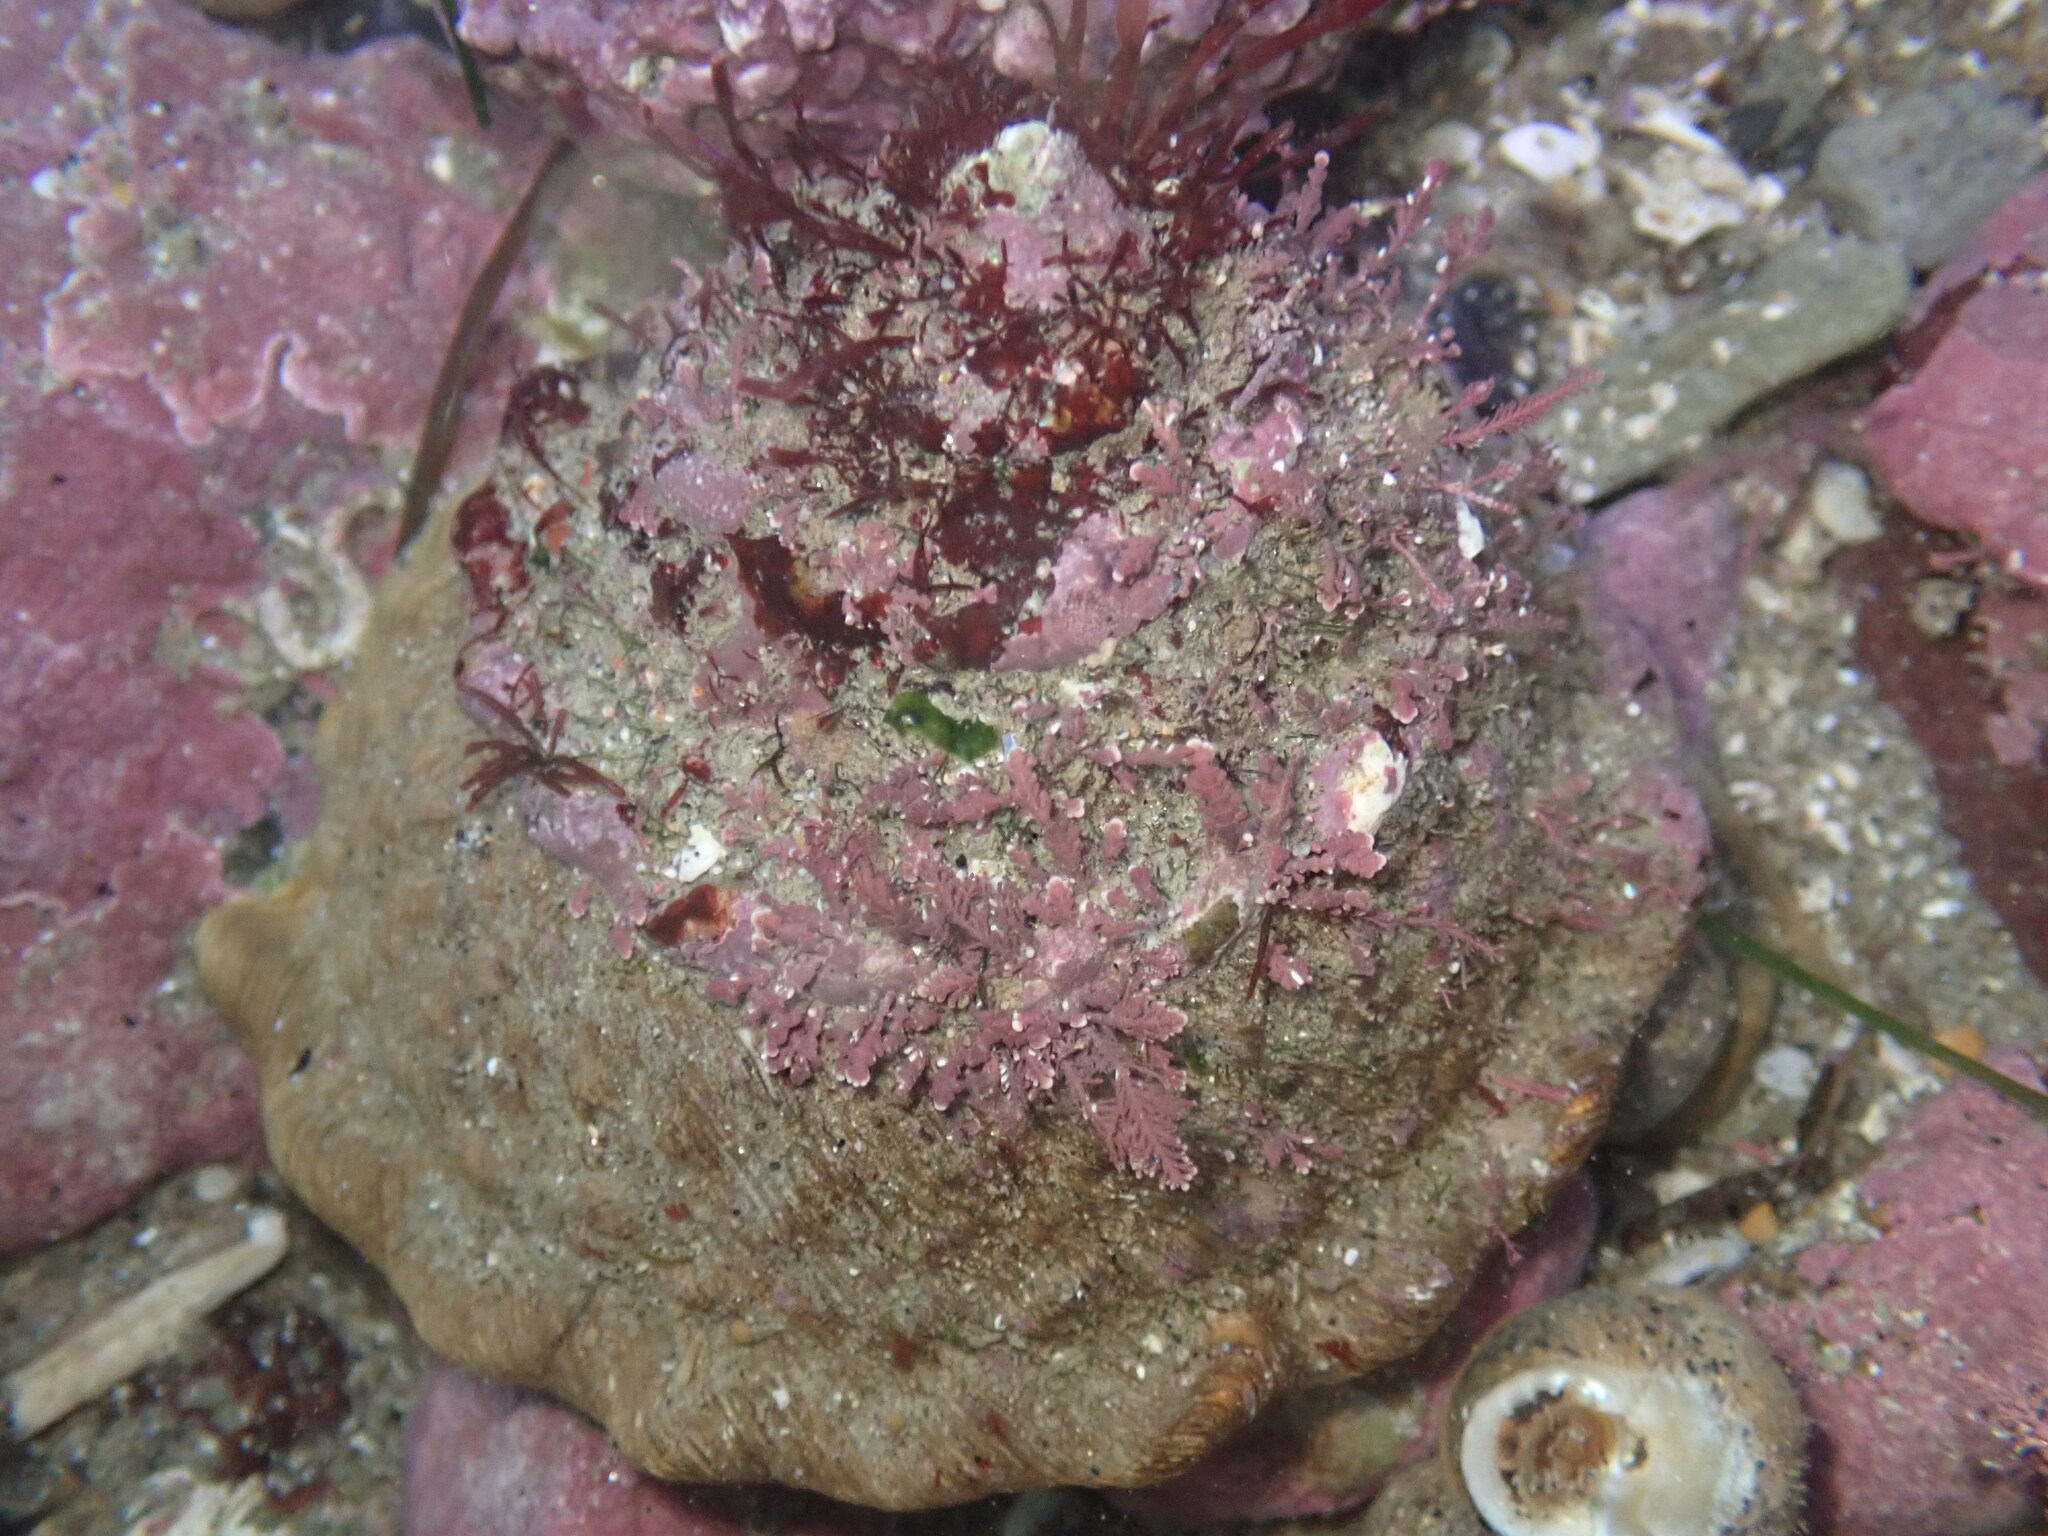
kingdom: Animalia
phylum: Mollusca
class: Gastropoda
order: Trochida
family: Turbinidae
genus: Megastraea
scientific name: Megastraea undosa
